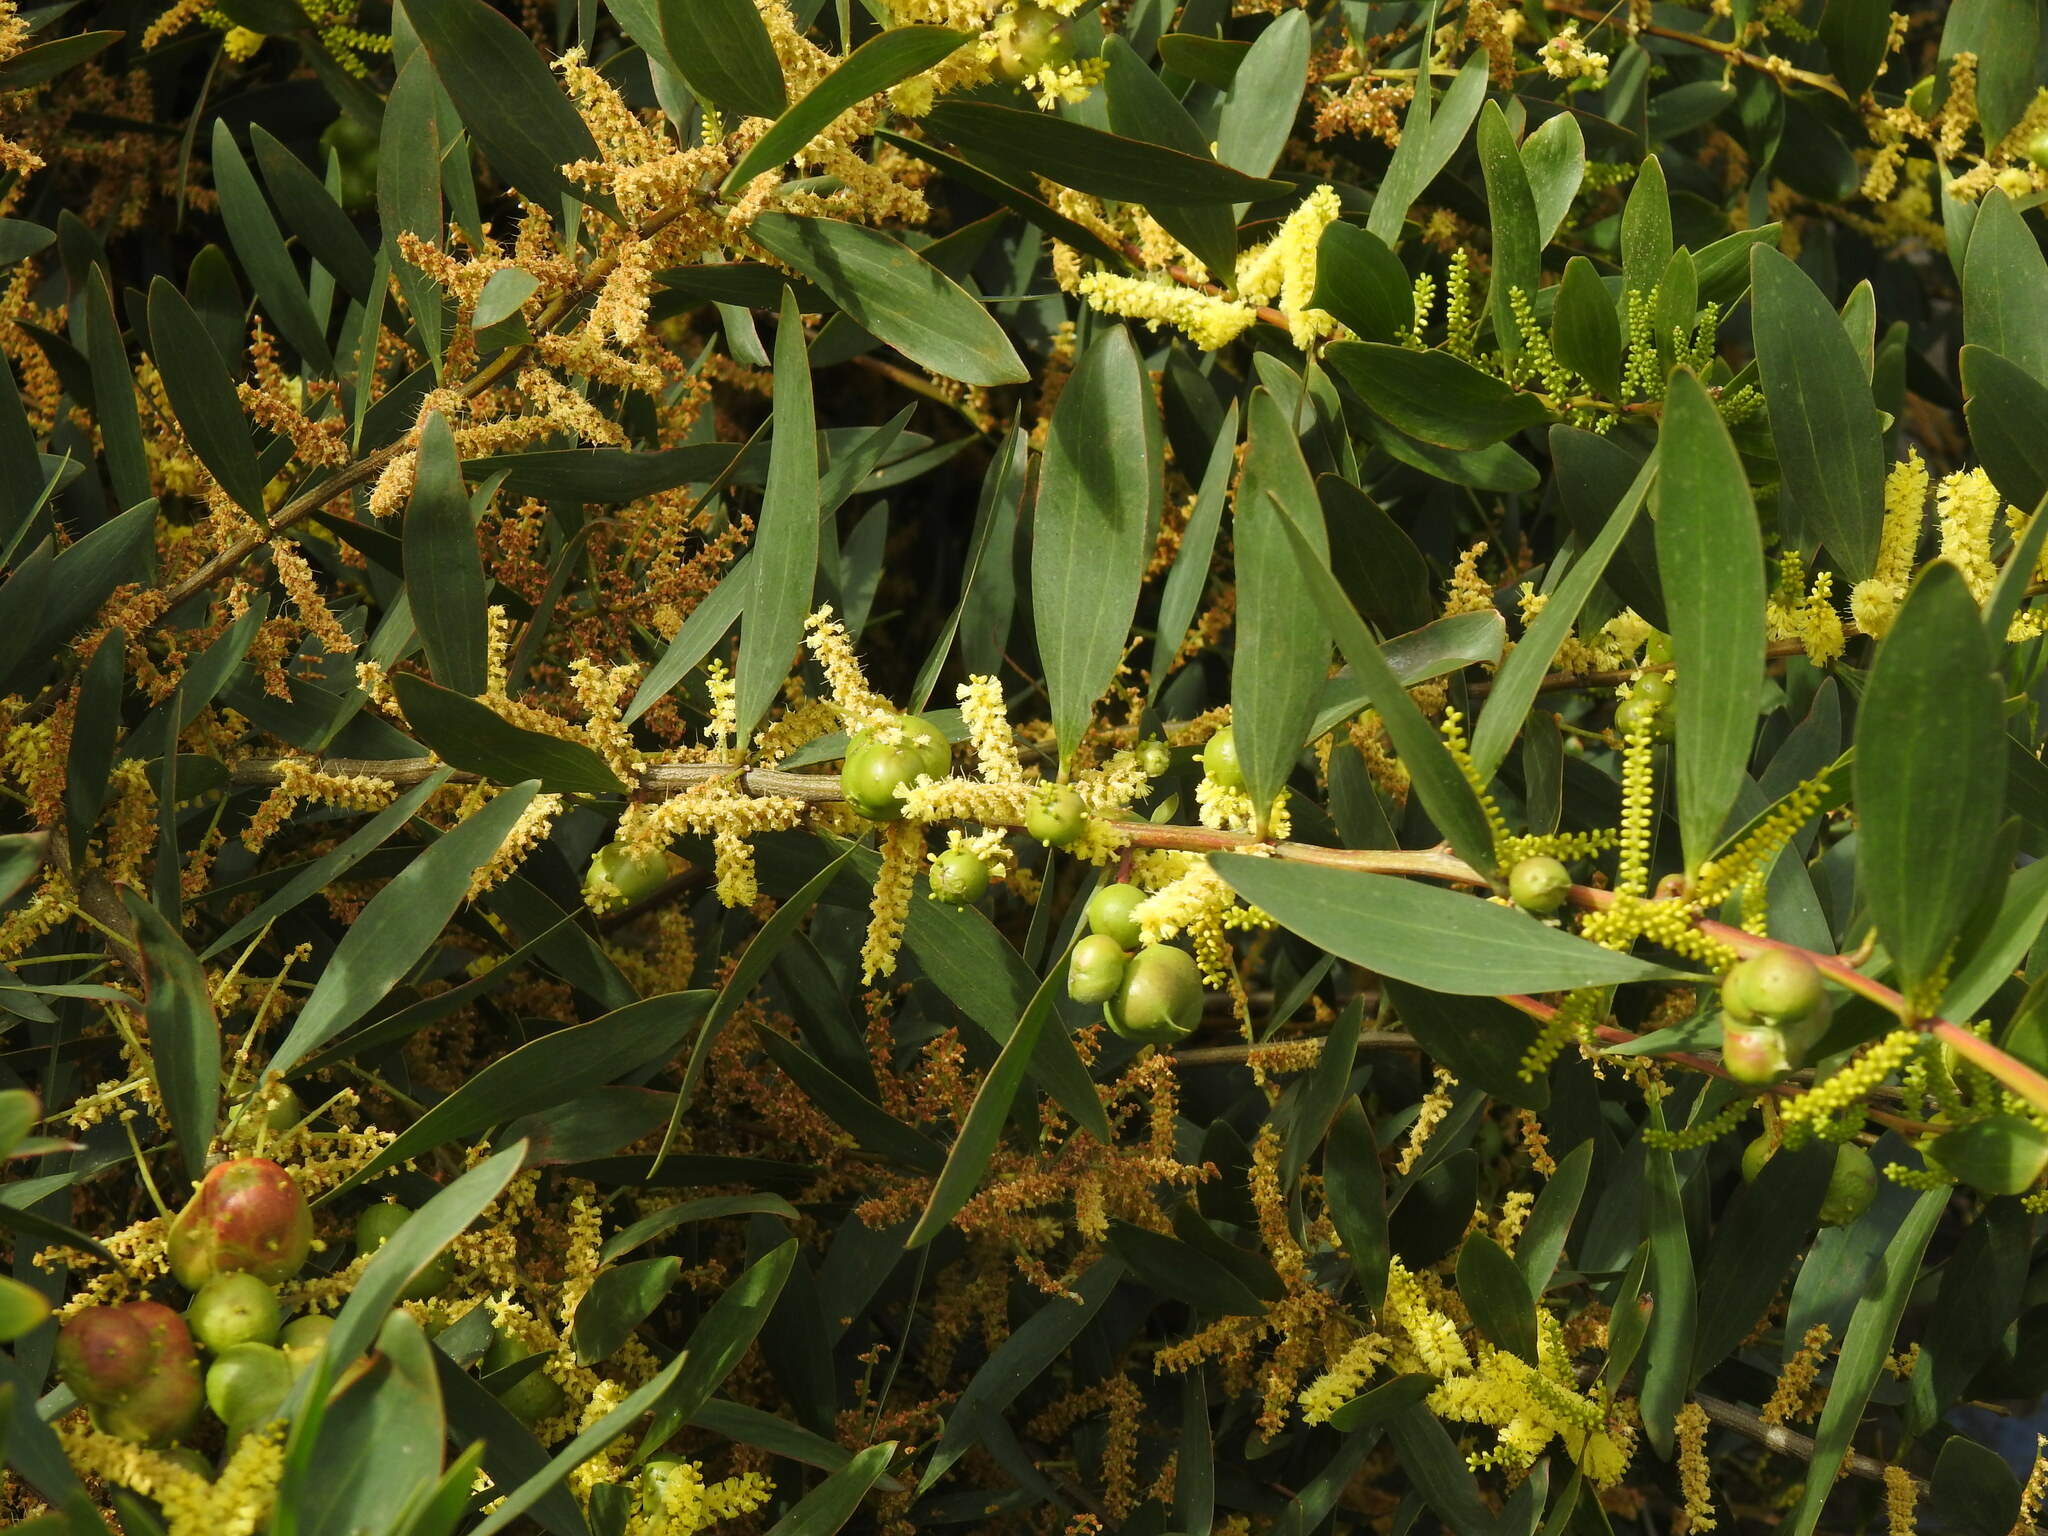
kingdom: Plantae
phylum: Tracheophyta
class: Magnoliopsida
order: Fabales
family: Fabaceae
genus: Acacia
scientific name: Acacia longifolia
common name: Sydney golden wattle
